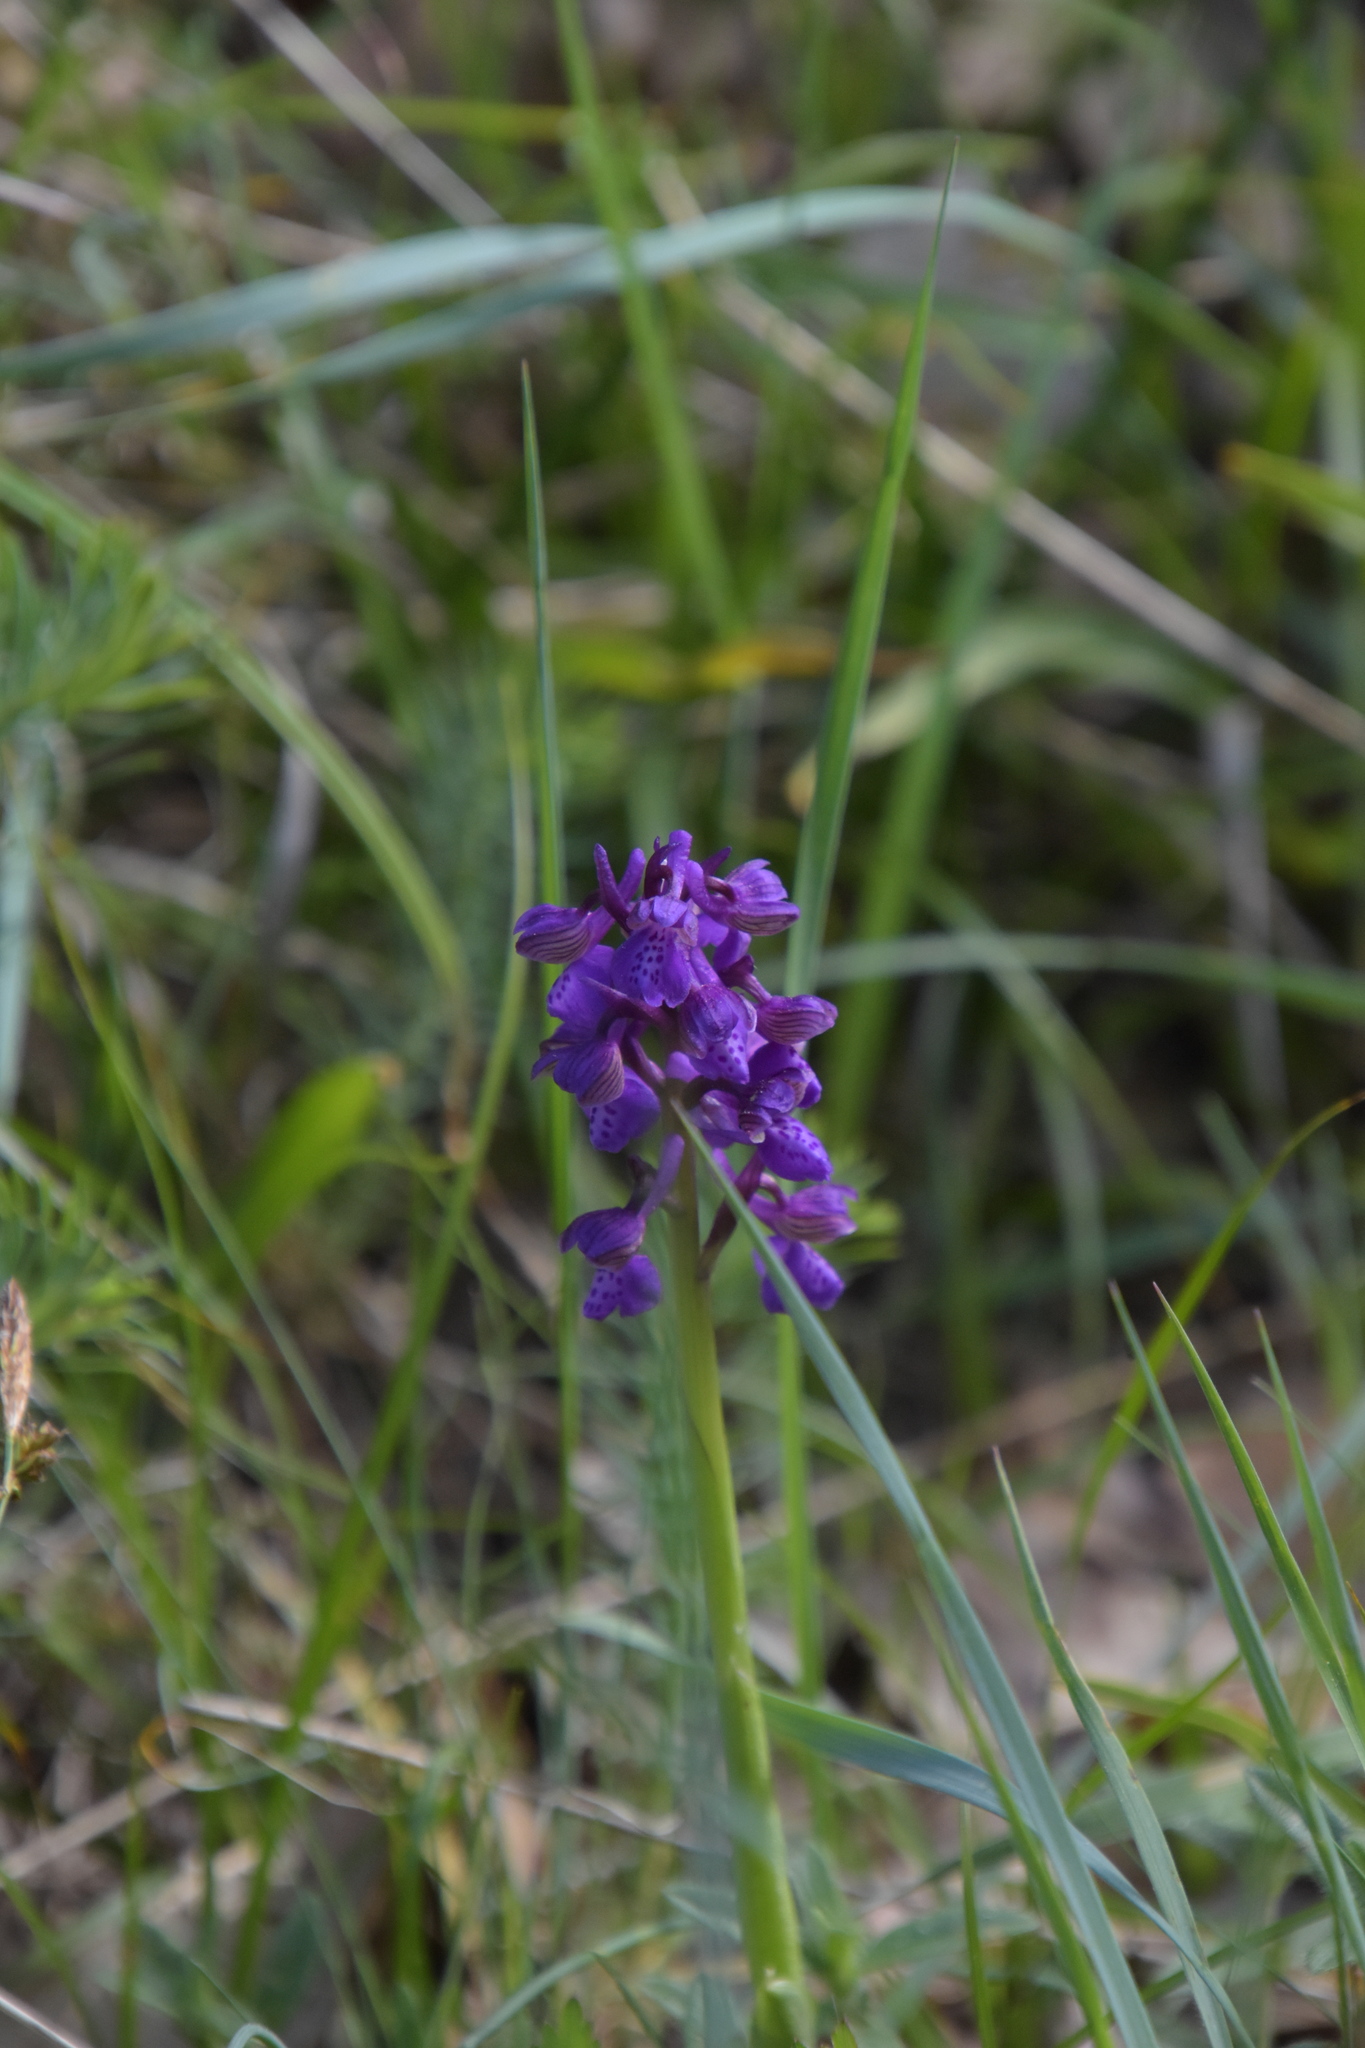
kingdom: Plantae
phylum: Tracheophyta
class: Liliopsida
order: Asparagales
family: Orchidaceae
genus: Anacamptis
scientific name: Anacamptis morio
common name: Green-winged orchid
